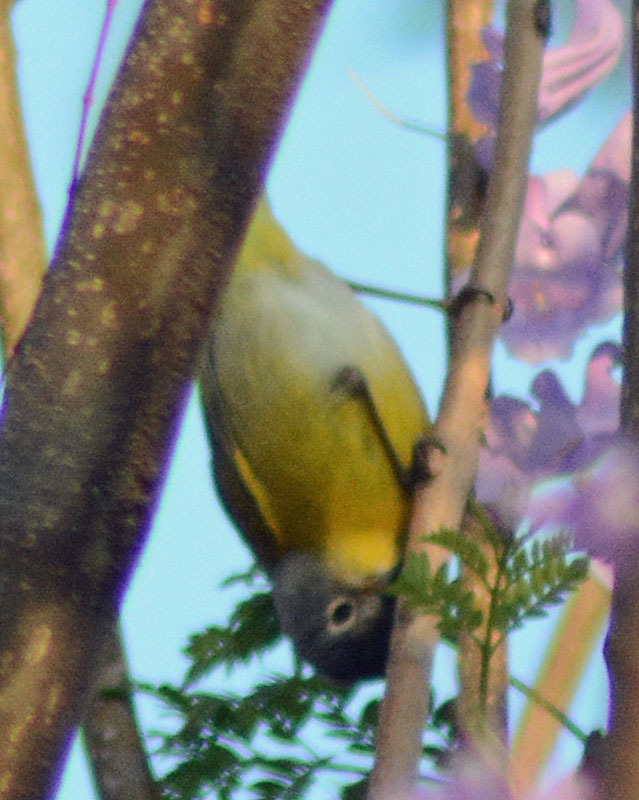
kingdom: Animalia
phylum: Chordata
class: Aves
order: Passeriformes
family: Parulidae
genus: Leiothlypis
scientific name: Leiothlypis ruficapilla
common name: Nashville warbler
